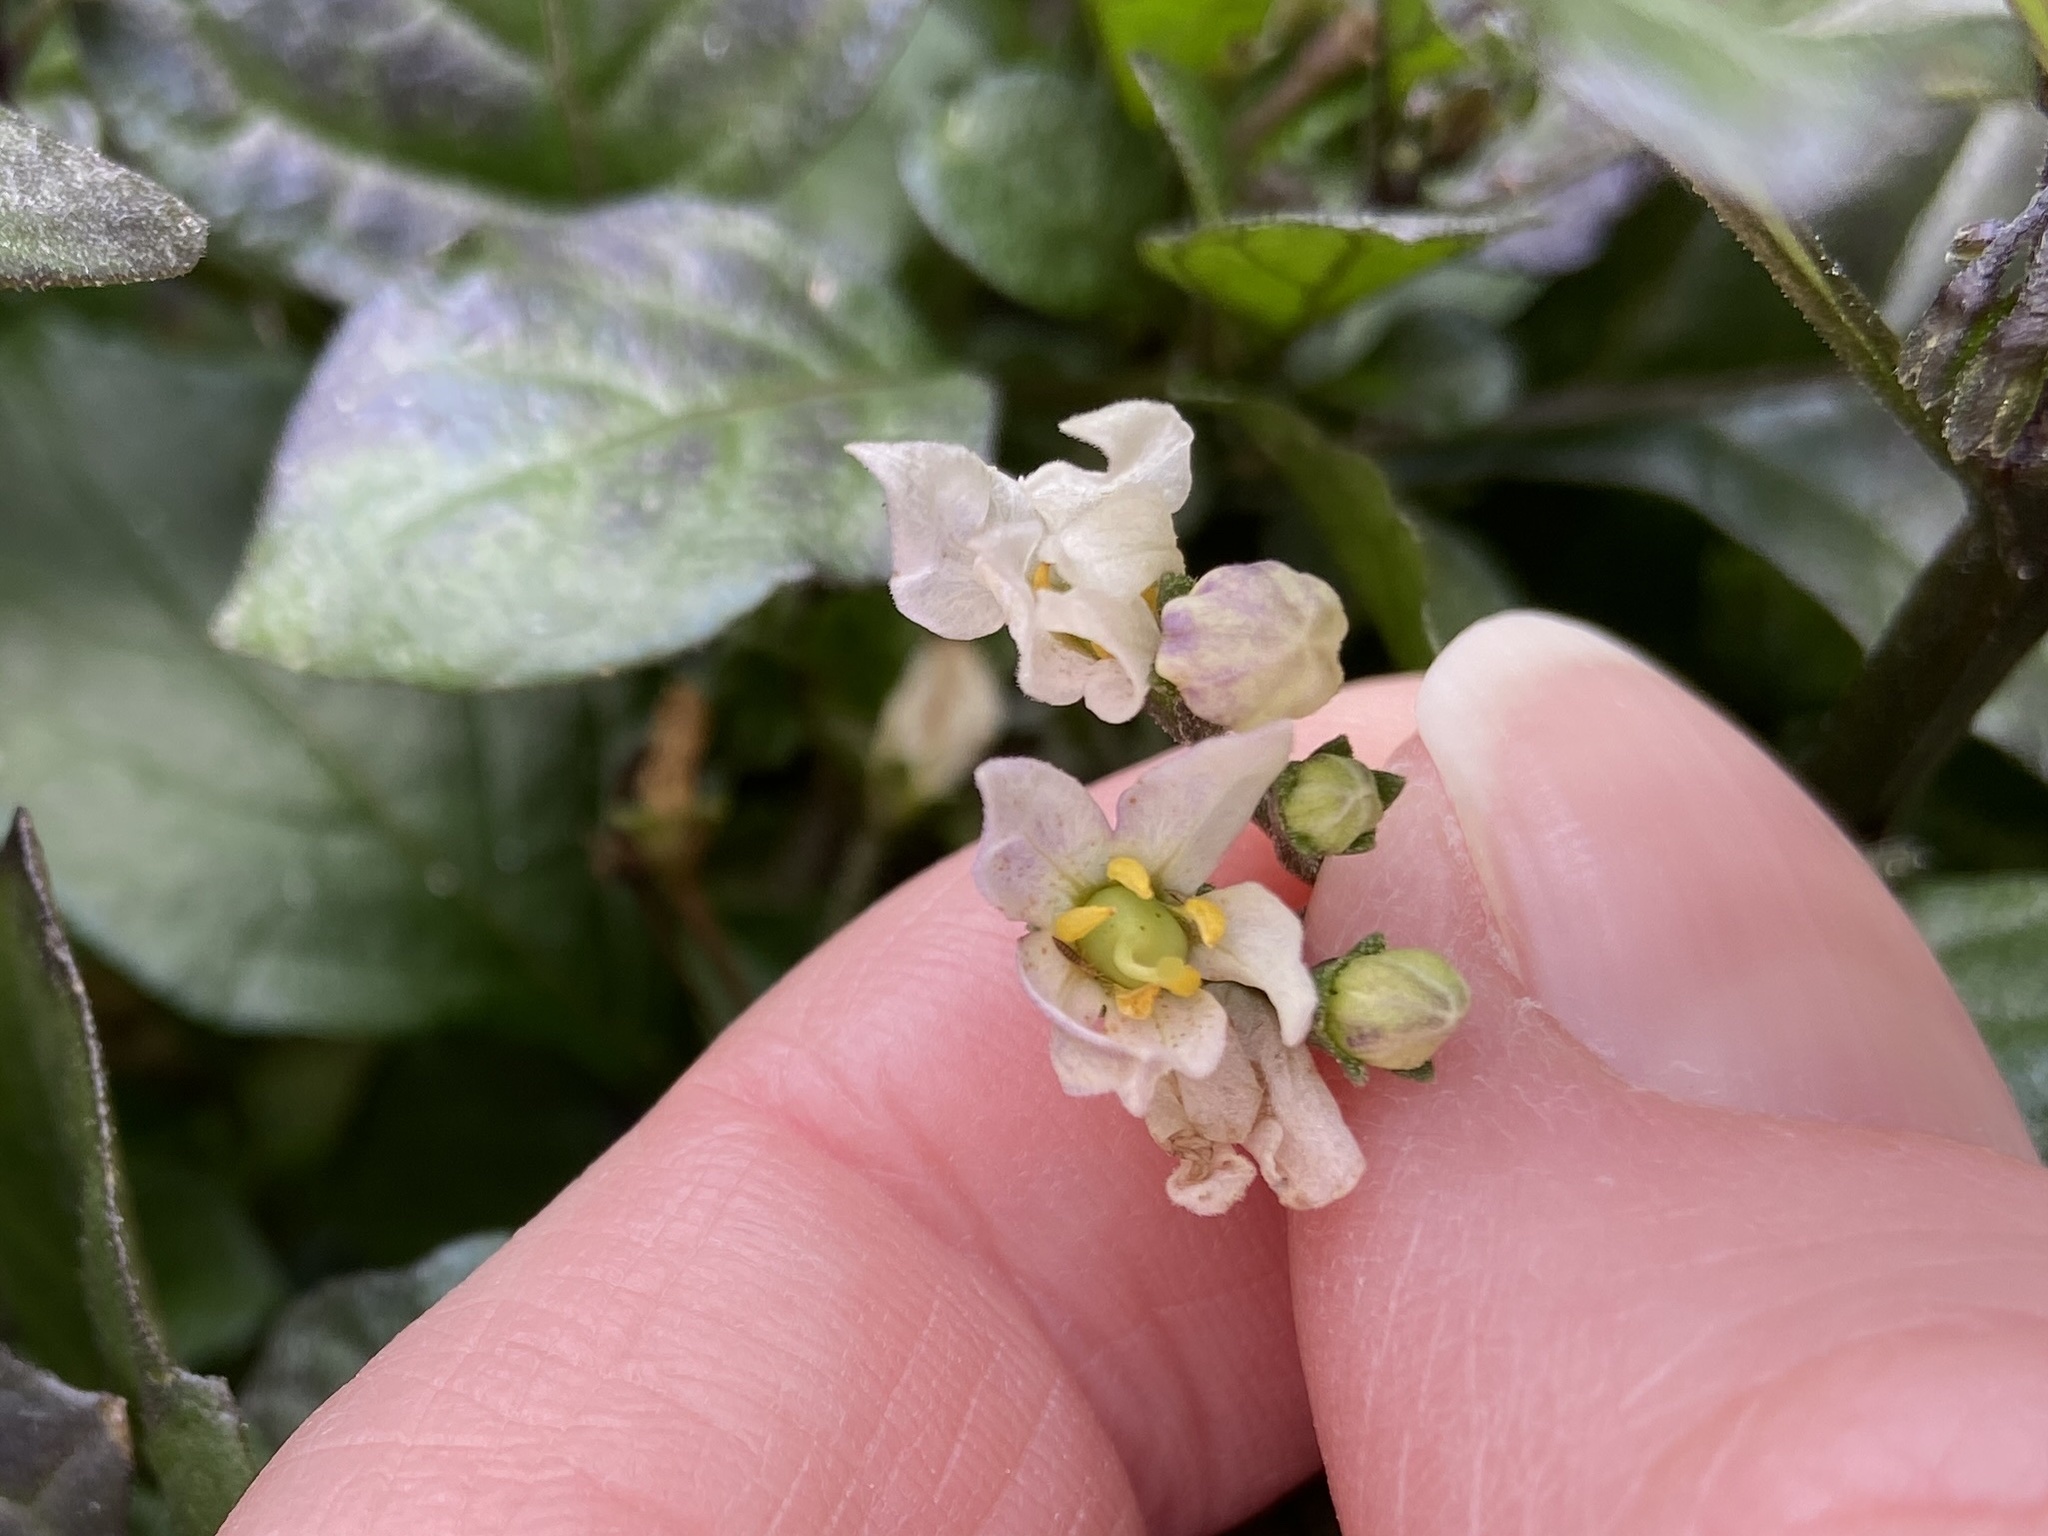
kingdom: Plantae
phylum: Tracheophyta
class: Magnoliopsida
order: Solanales
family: Solanaceae
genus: Solanum
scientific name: Solanum nigrum
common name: Black nightshade
